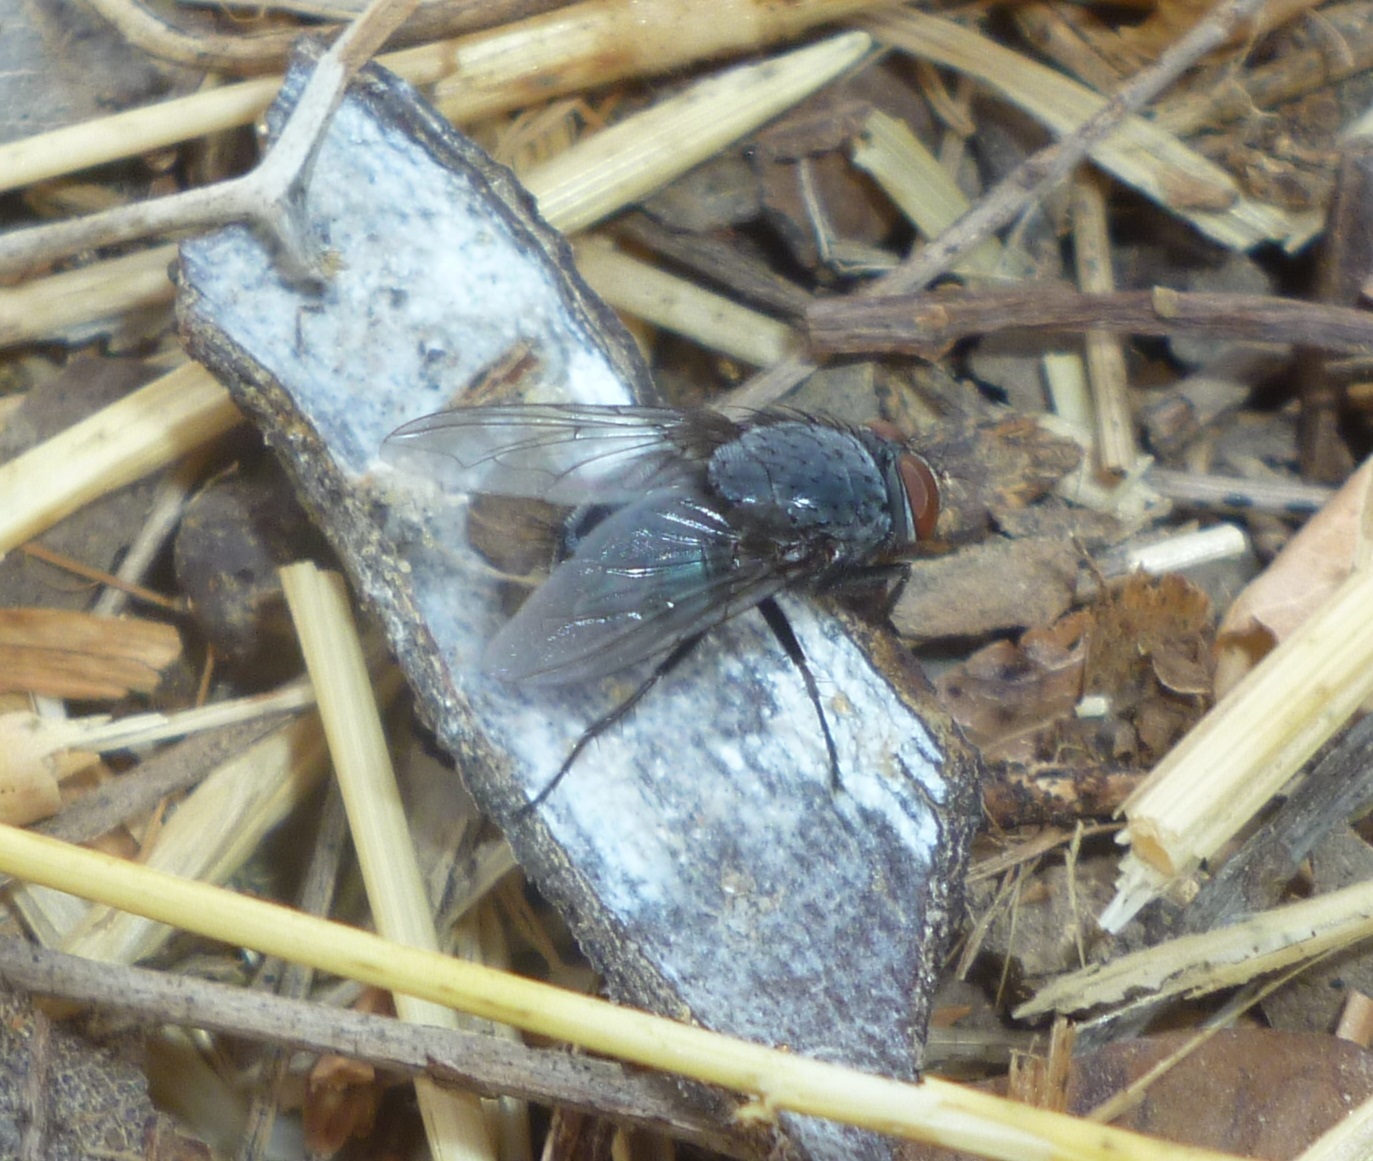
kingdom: Animalia
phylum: Arthropoda
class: Insecta
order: Diptera
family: Calliphoridae
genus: Calliphora
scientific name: Calliphora vicina
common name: Common blow flie
